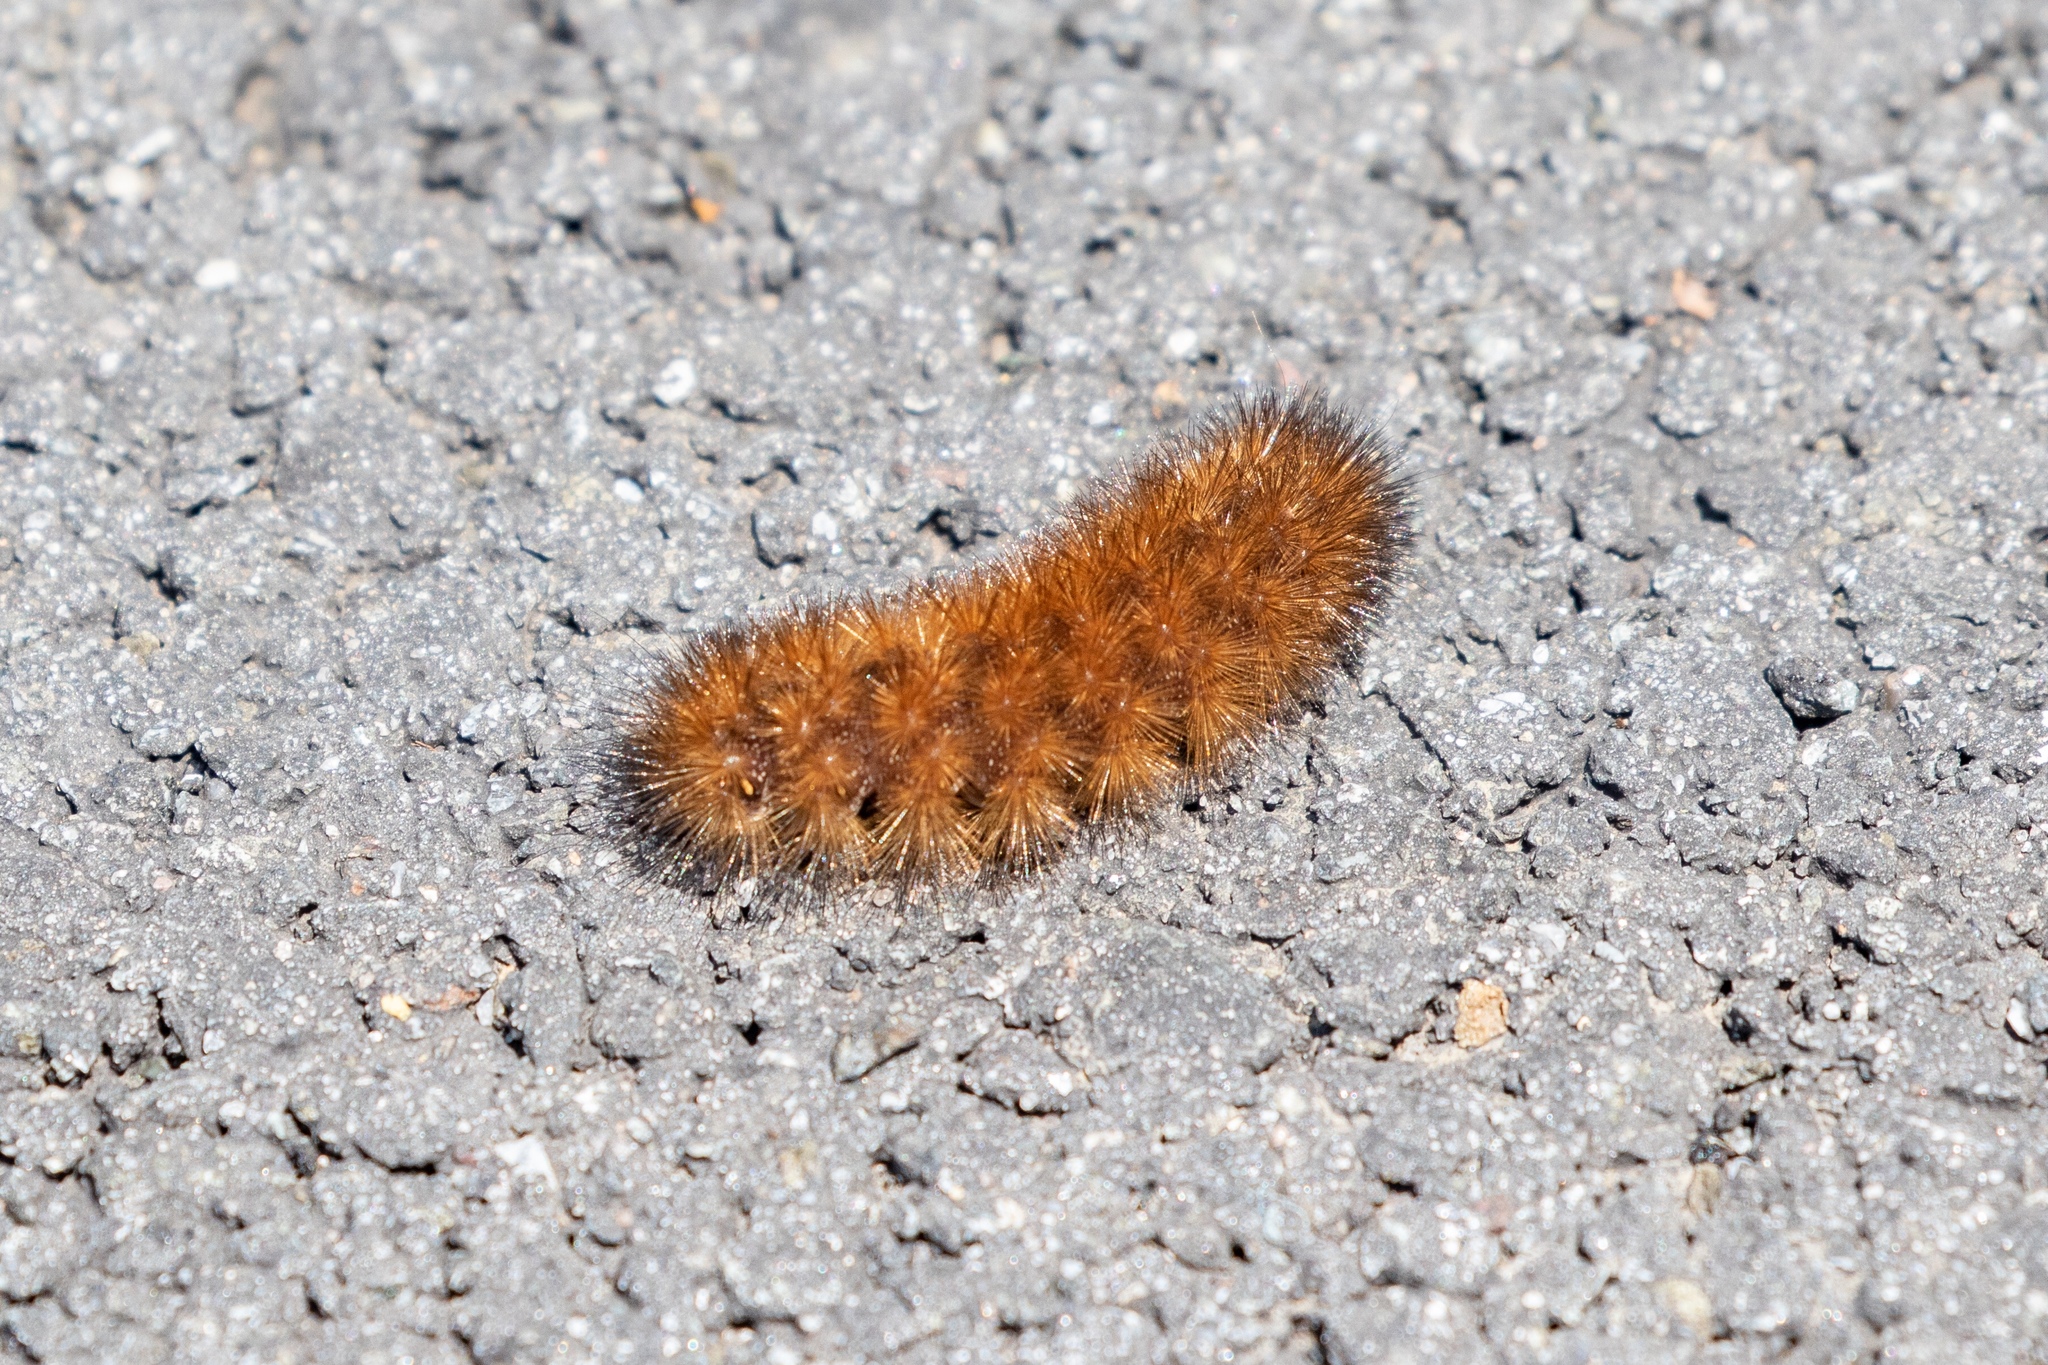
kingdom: Animalia
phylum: Arthropoda
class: Insecta
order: Lepidoptera
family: Erebidae
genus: Pyrrharctia
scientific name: Pyrrharctia isabella
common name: Isabella tiger moth
